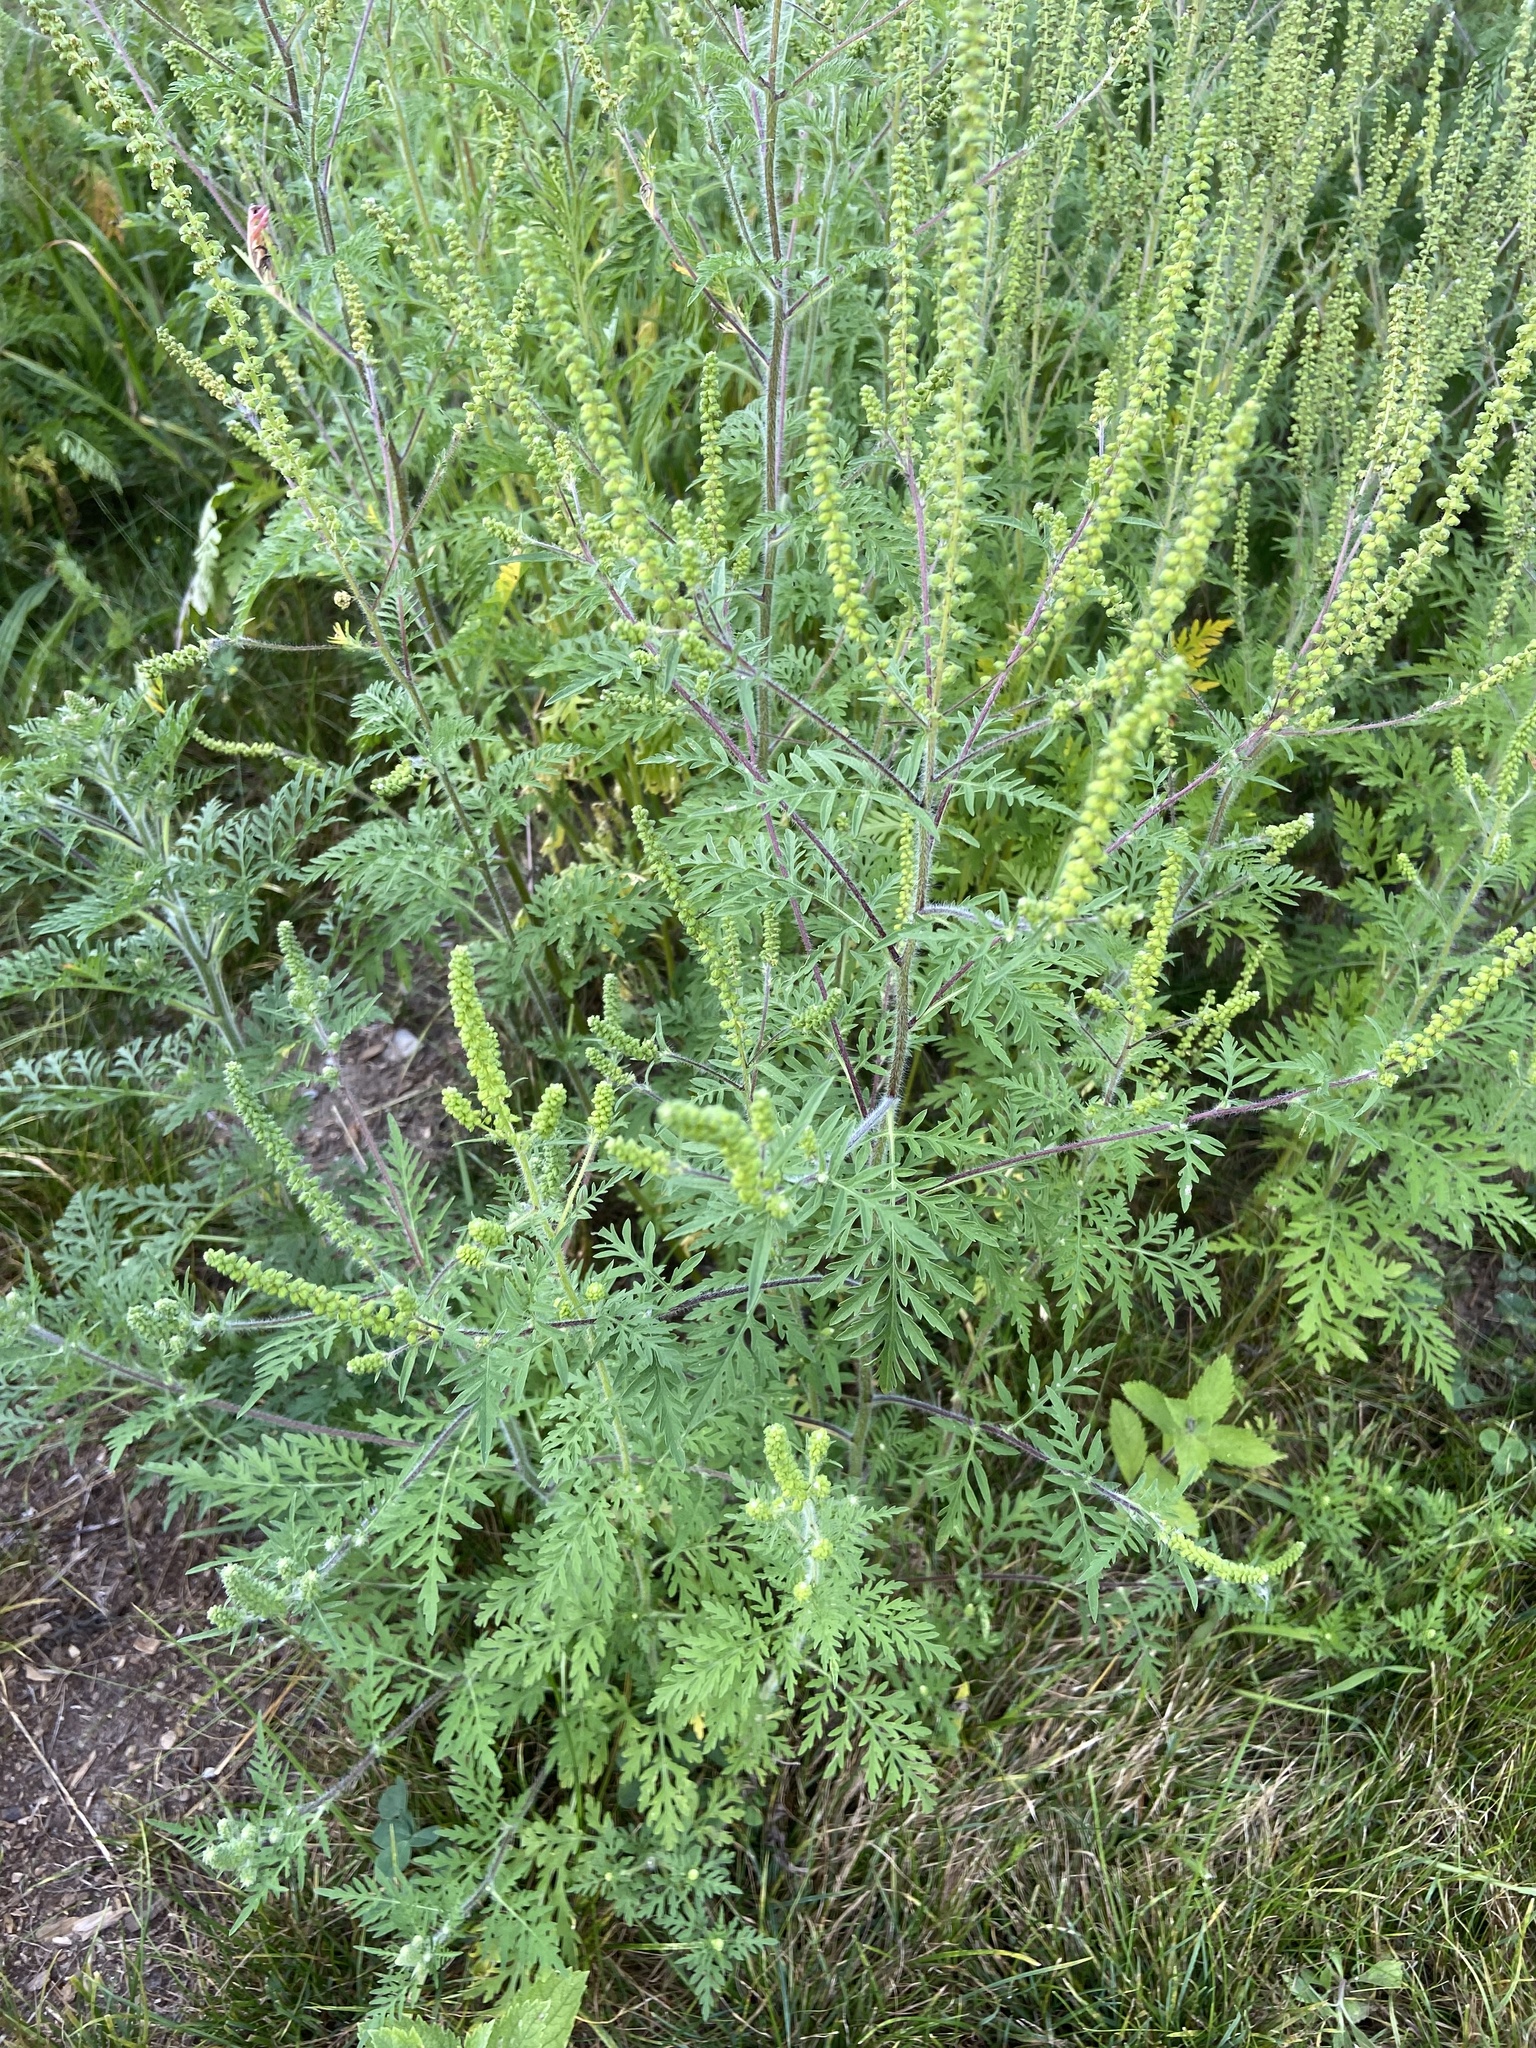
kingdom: Plantae
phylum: Tracheophyta
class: Magnoliopsida
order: Asterales
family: Asteraceae
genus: Ambrosia
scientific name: Ambrosia artemisiifolia
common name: Annual ragweed
